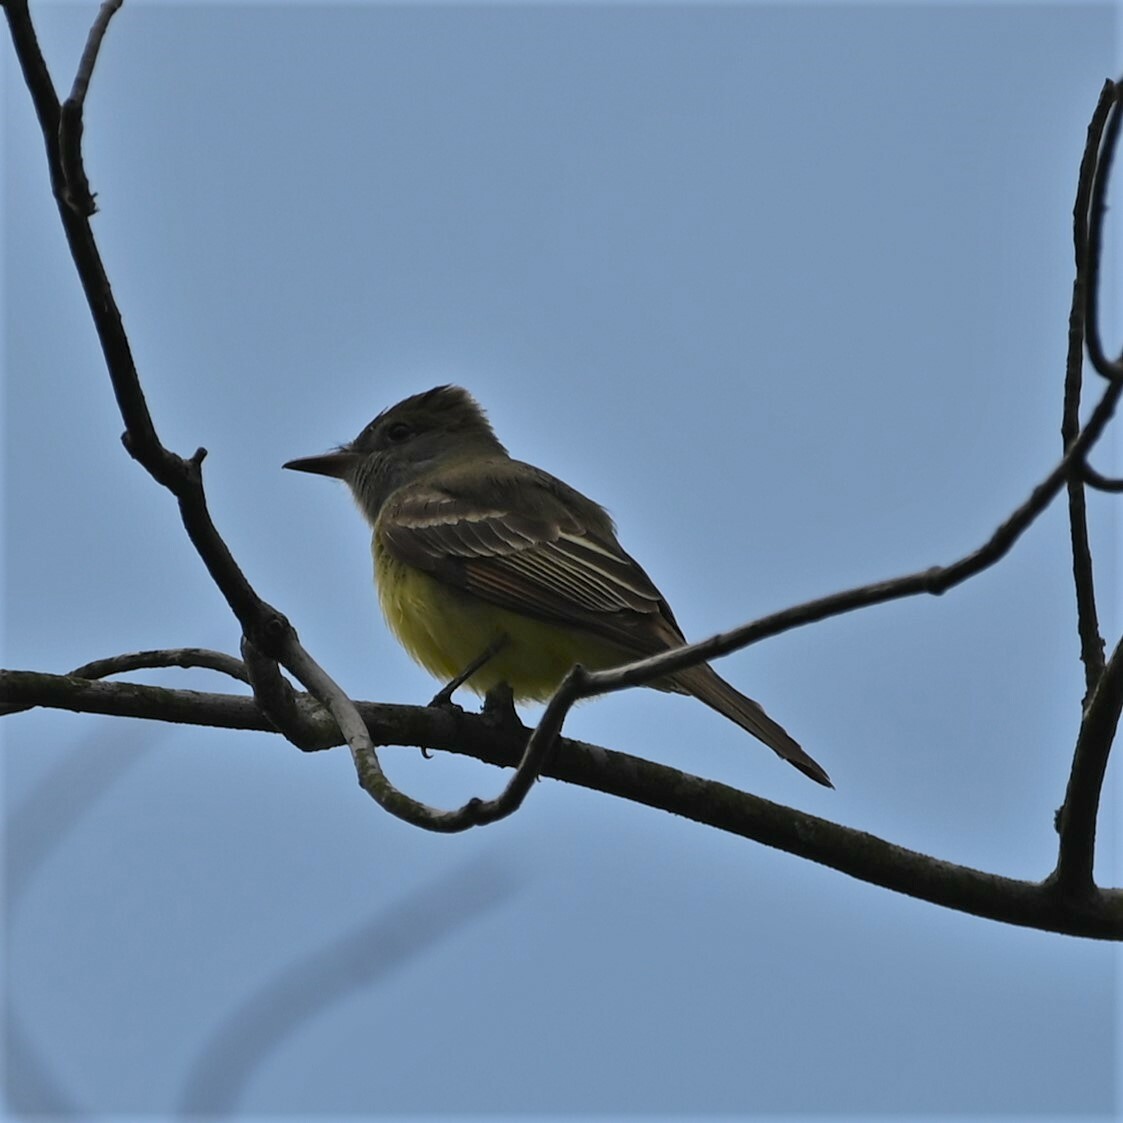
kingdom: Animalia
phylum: Chordata
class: Aves
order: Passeriformes
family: Tyrannidae
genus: Myiarchus
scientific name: Myiarchus crinitus
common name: Great crested flycatcher
